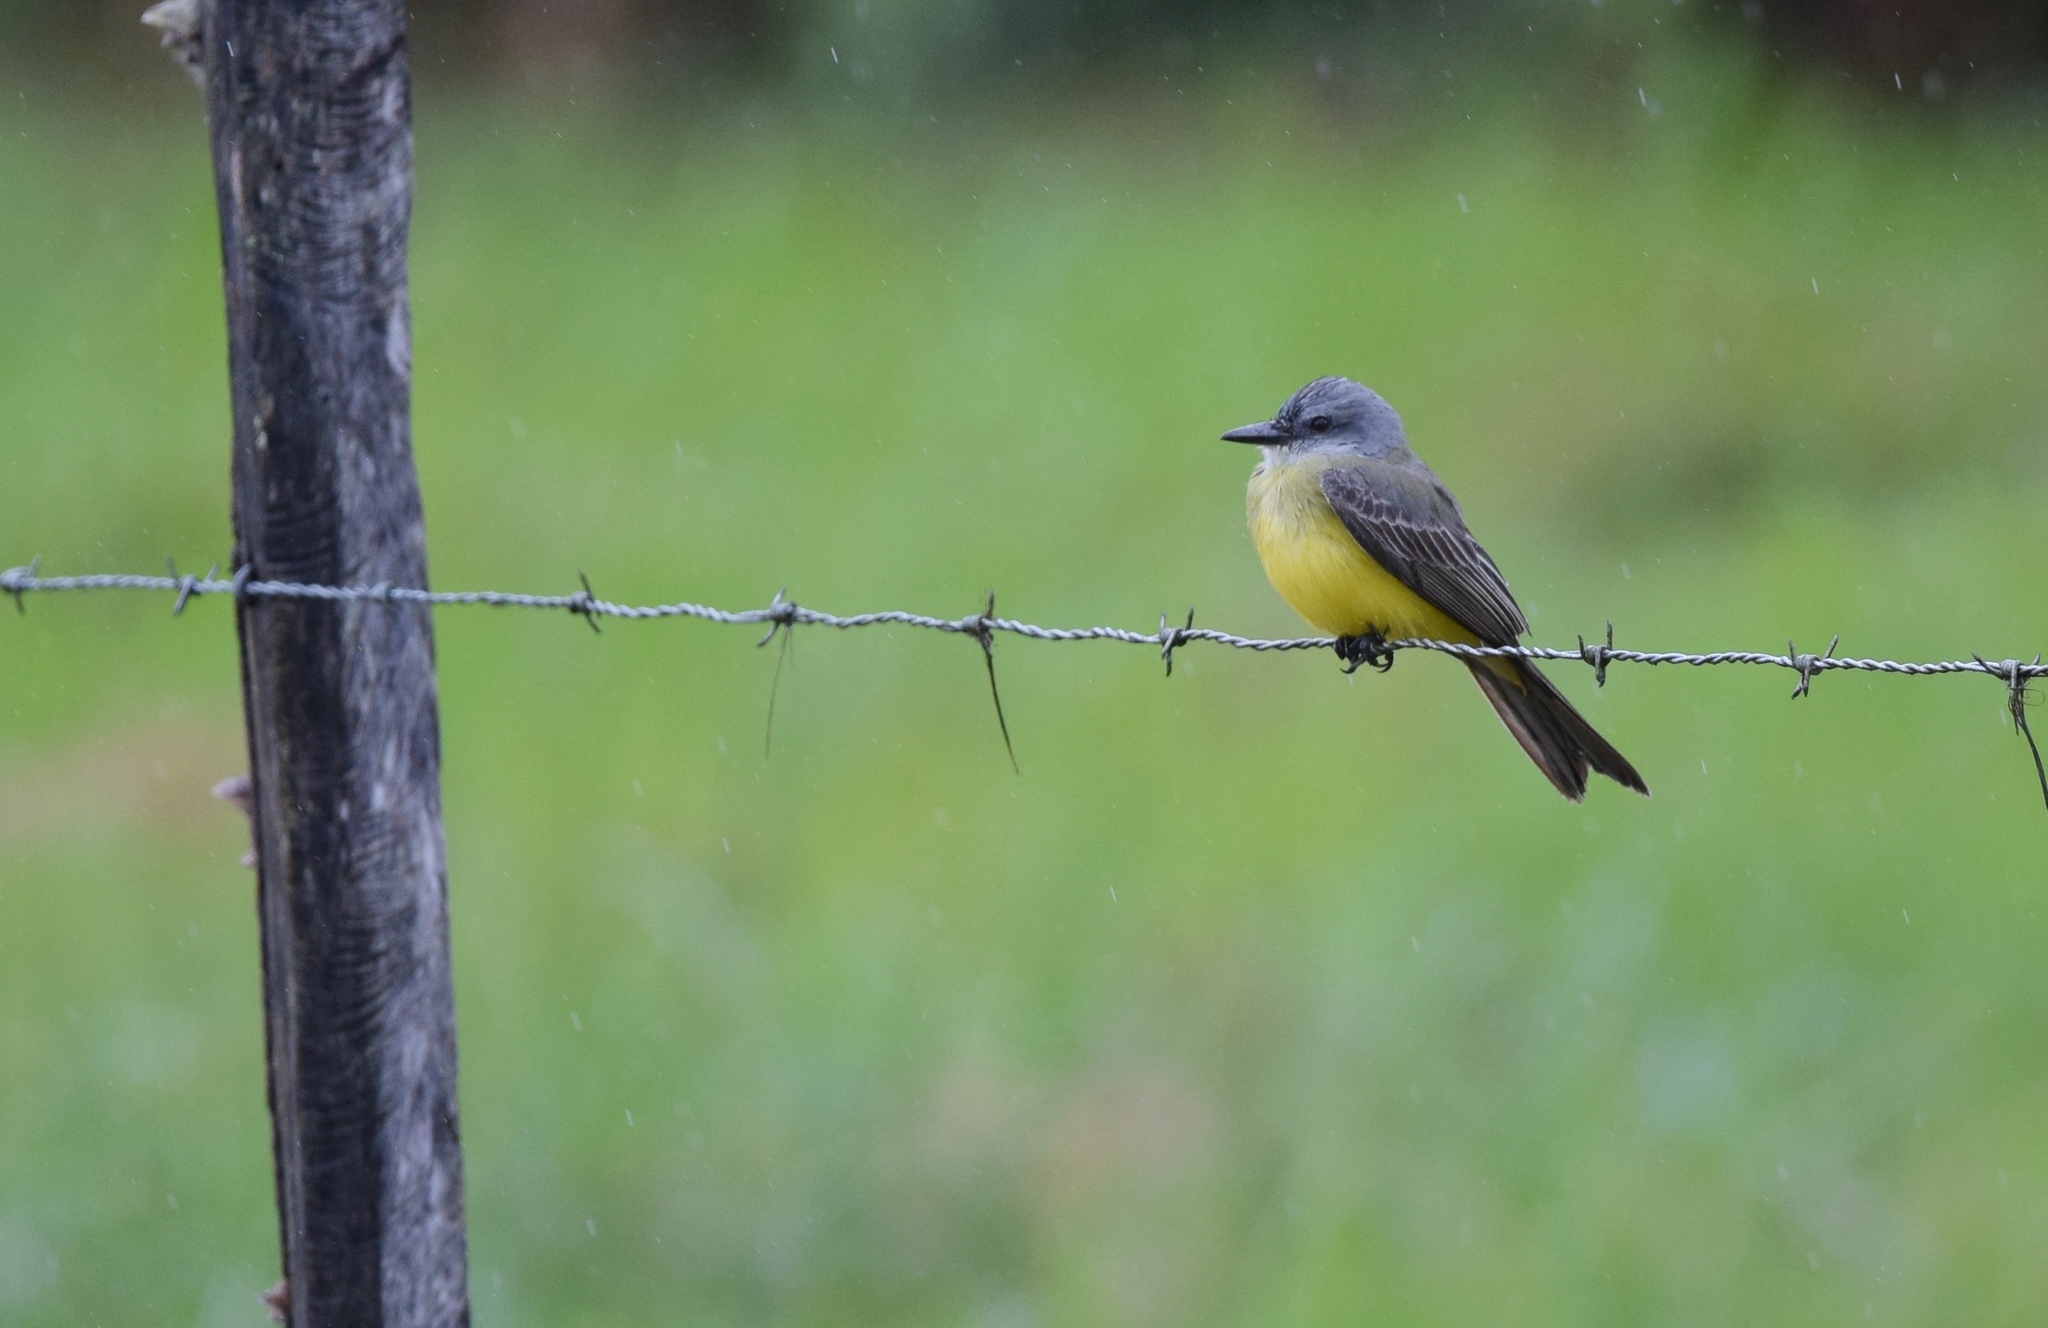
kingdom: Animalia
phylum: Chordata
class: Aves
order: Passeriformes
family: Tyrannidae
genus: Tyrannus
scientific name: Tyrannus melancholicus
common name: Tropical kingbird
